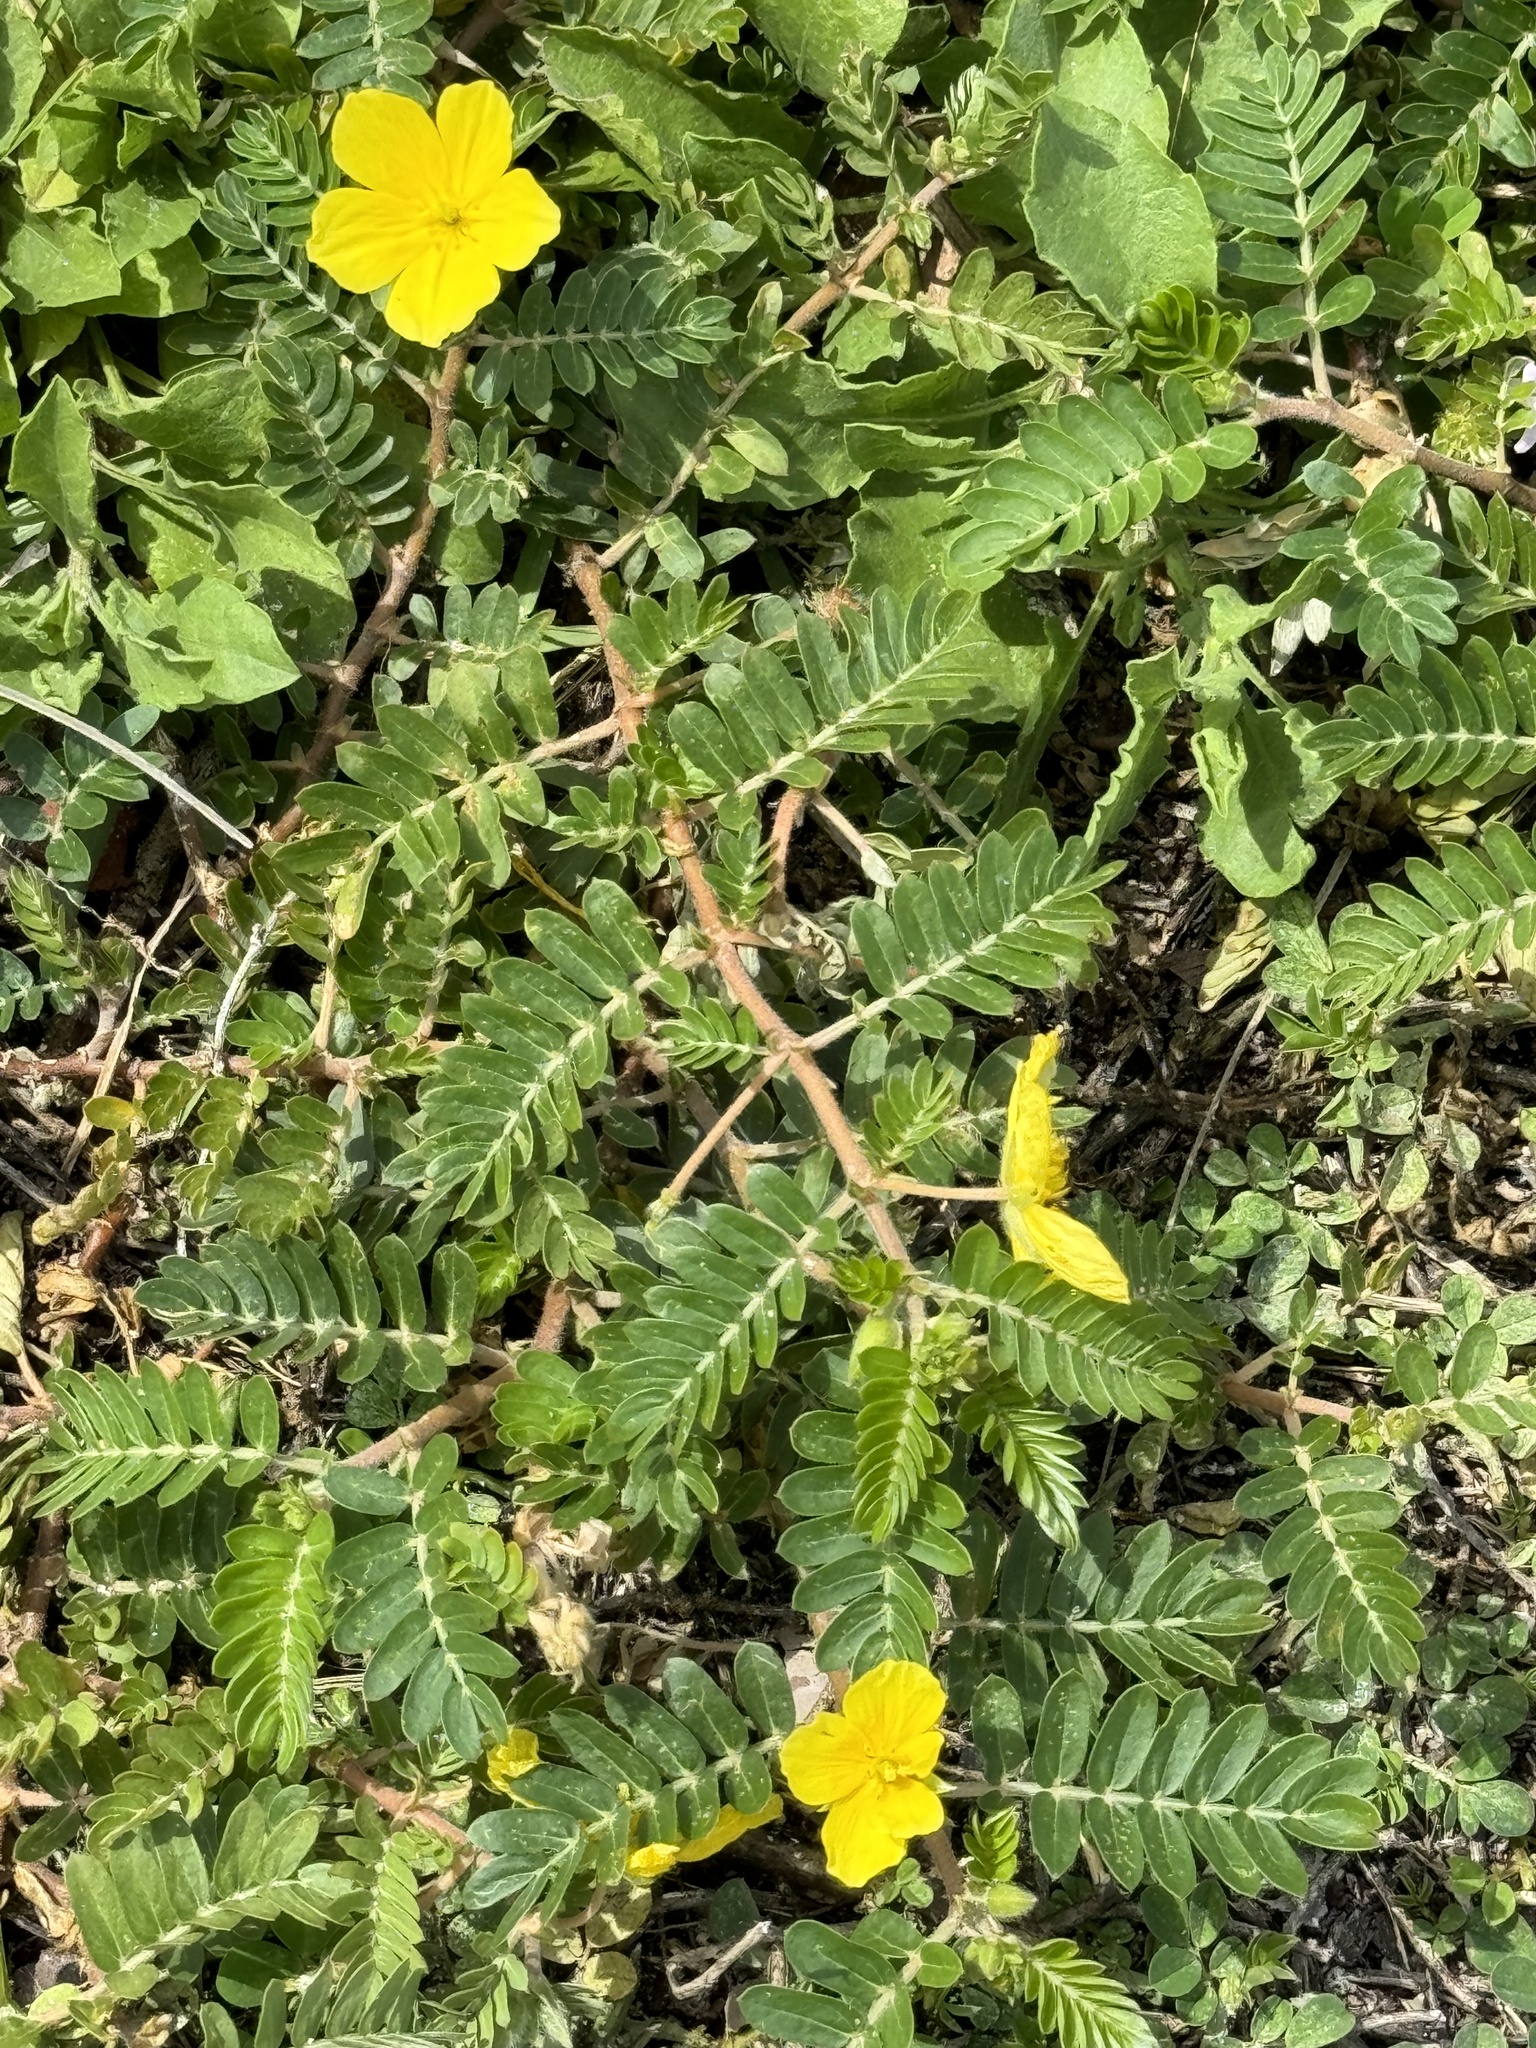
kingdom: Plantae
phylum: Tracheophyta
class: Magnoliopsida
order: Zygophyllales
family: Zygophyllaceae
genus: Tribulus
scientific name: Tribulus cistoides
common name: Jamaican feverplant
